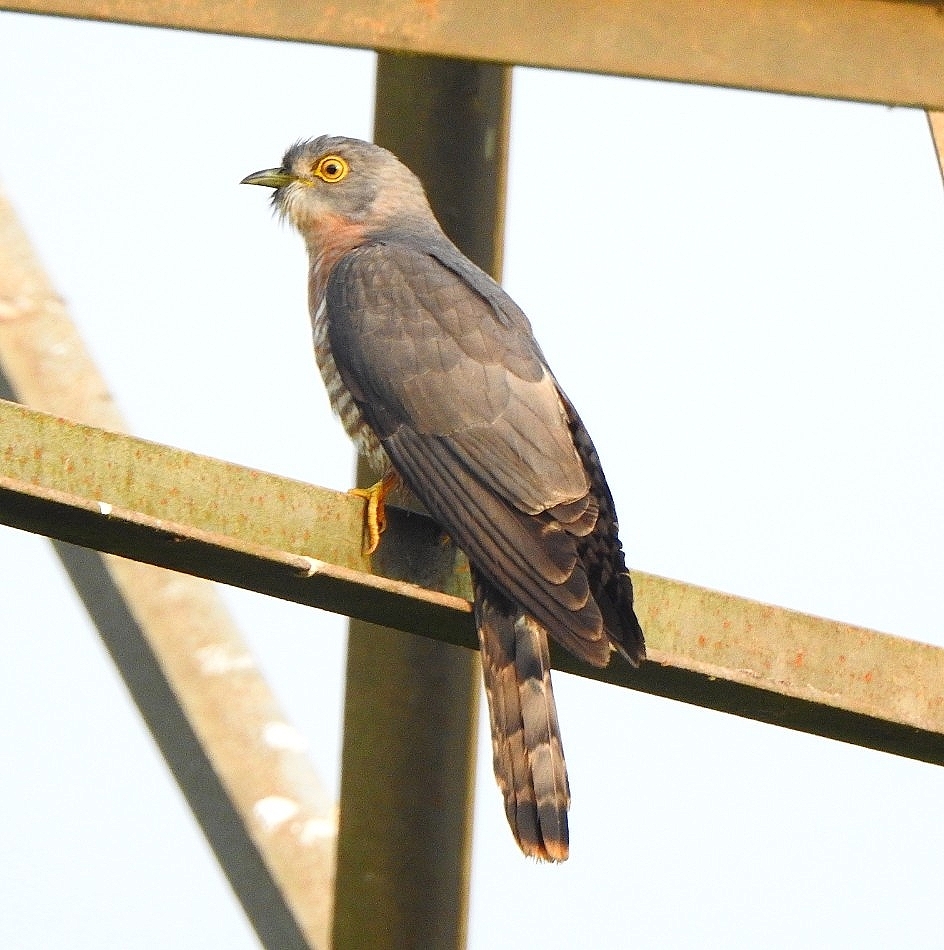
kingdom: Animalia
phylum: Chordata
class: Aves
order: Cuculiformes
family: Cuculidae
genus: Cuculus
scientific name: Cuculus varius
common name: Common hawk cuckoo
